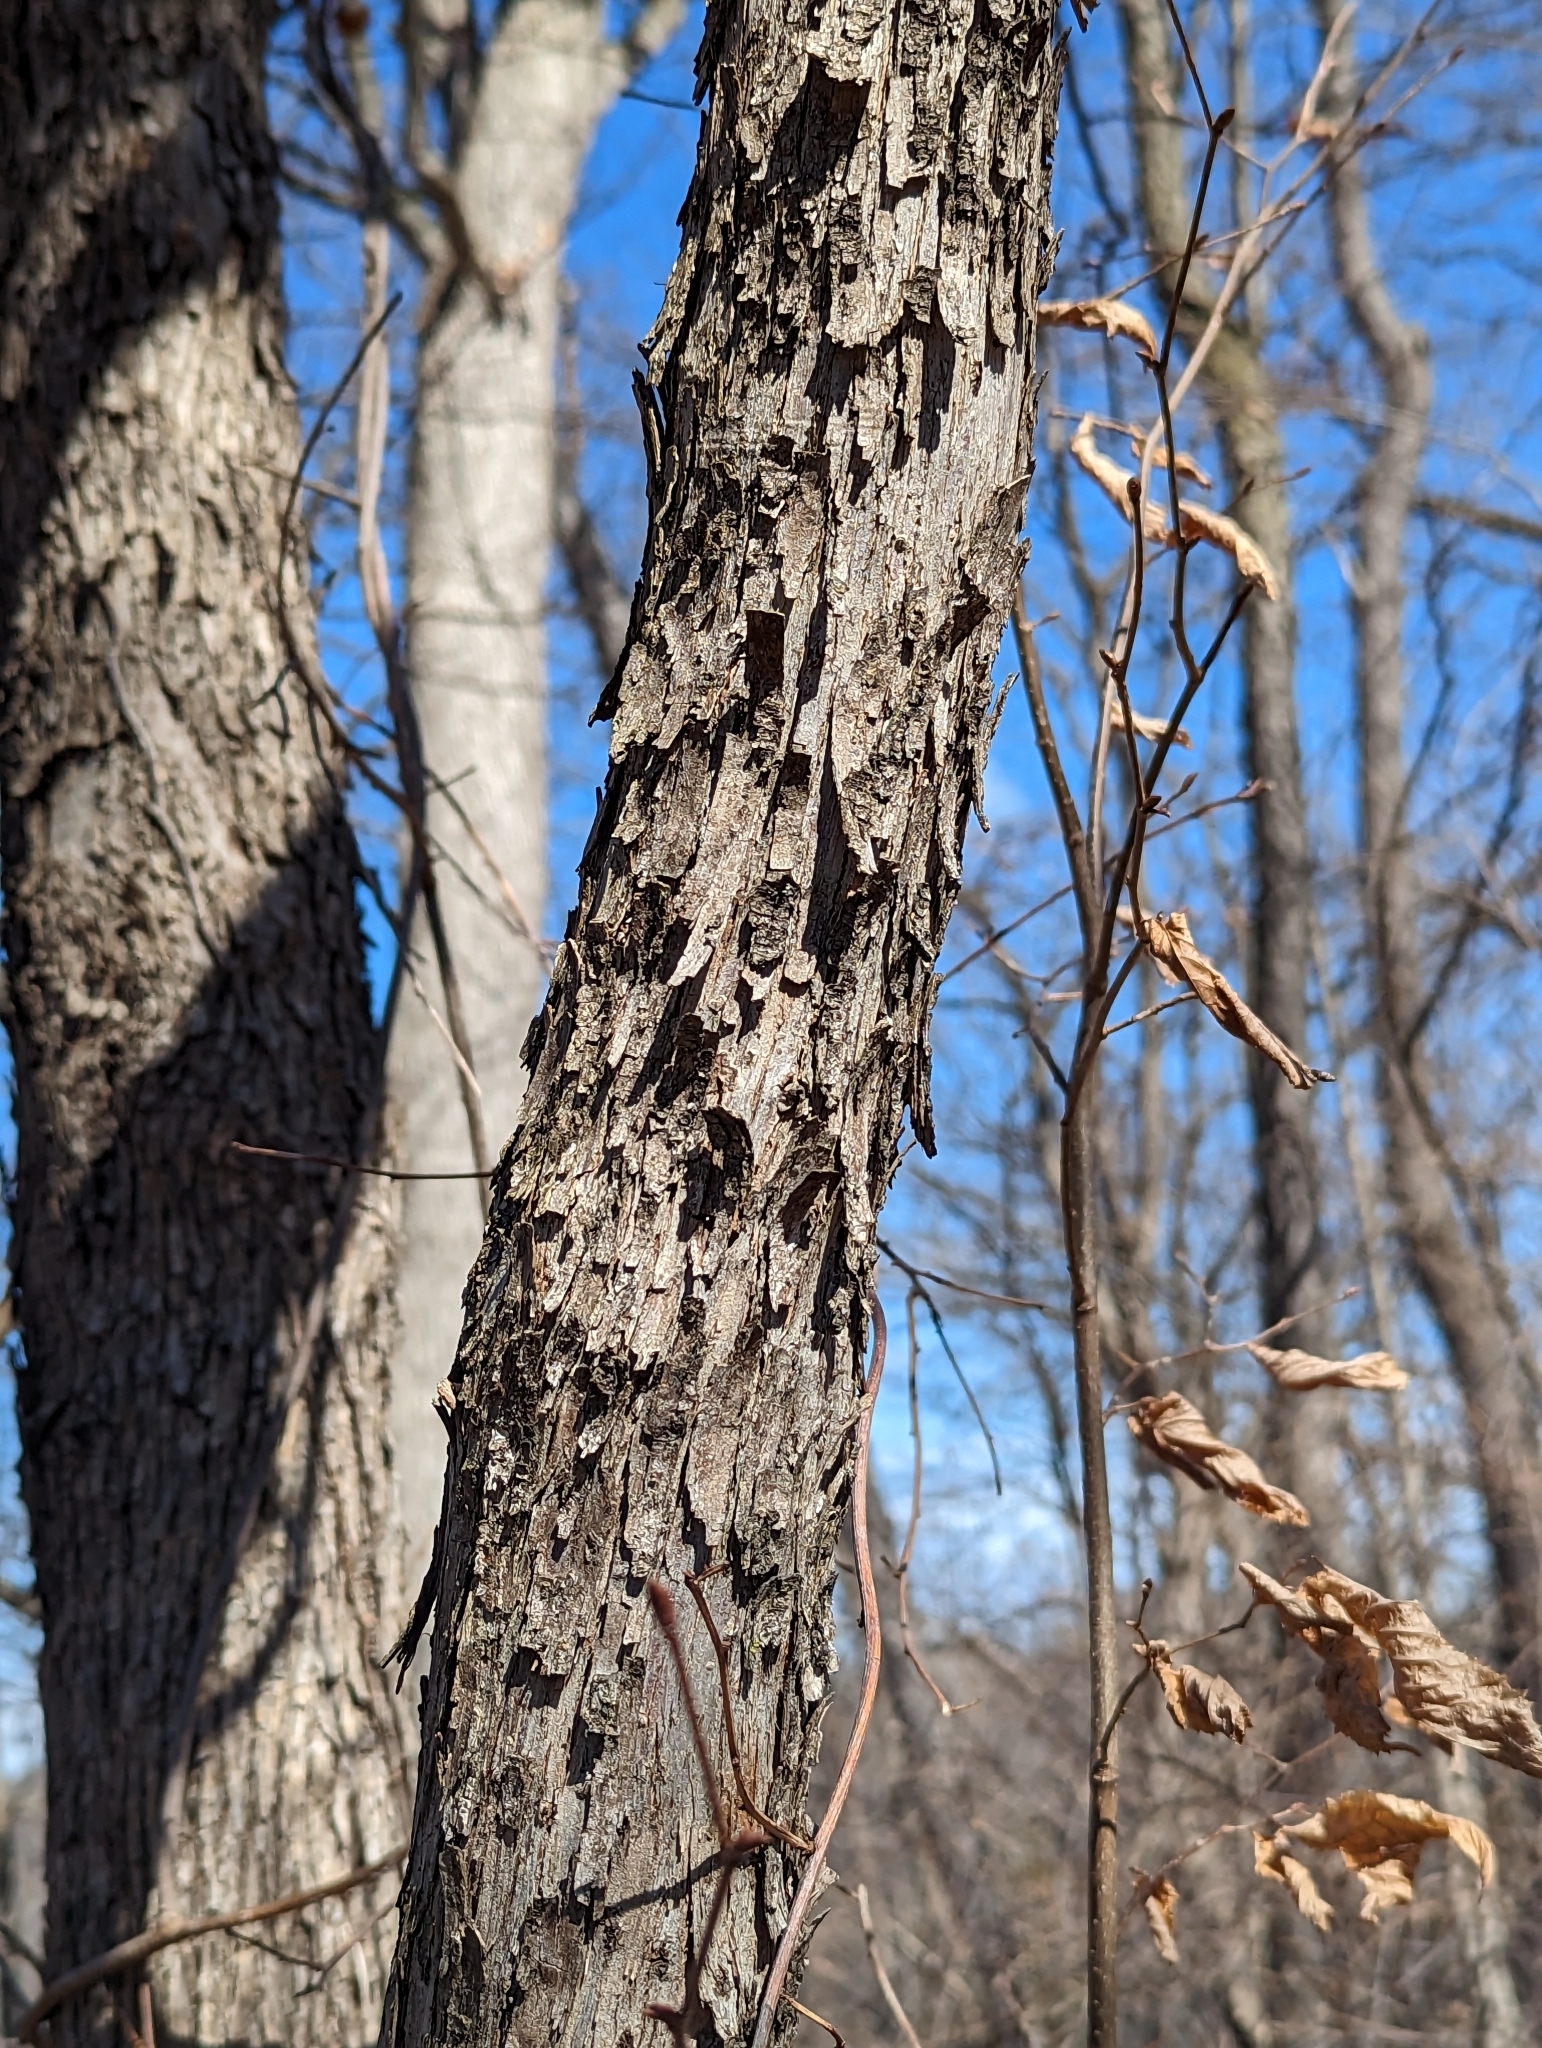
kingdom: Plantae
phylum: Tracheophyta
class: Magnoliopsida
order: Fagales
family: Betulaceae
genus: Ostrya
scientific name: Ostrya virginiana
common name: Ironwood
